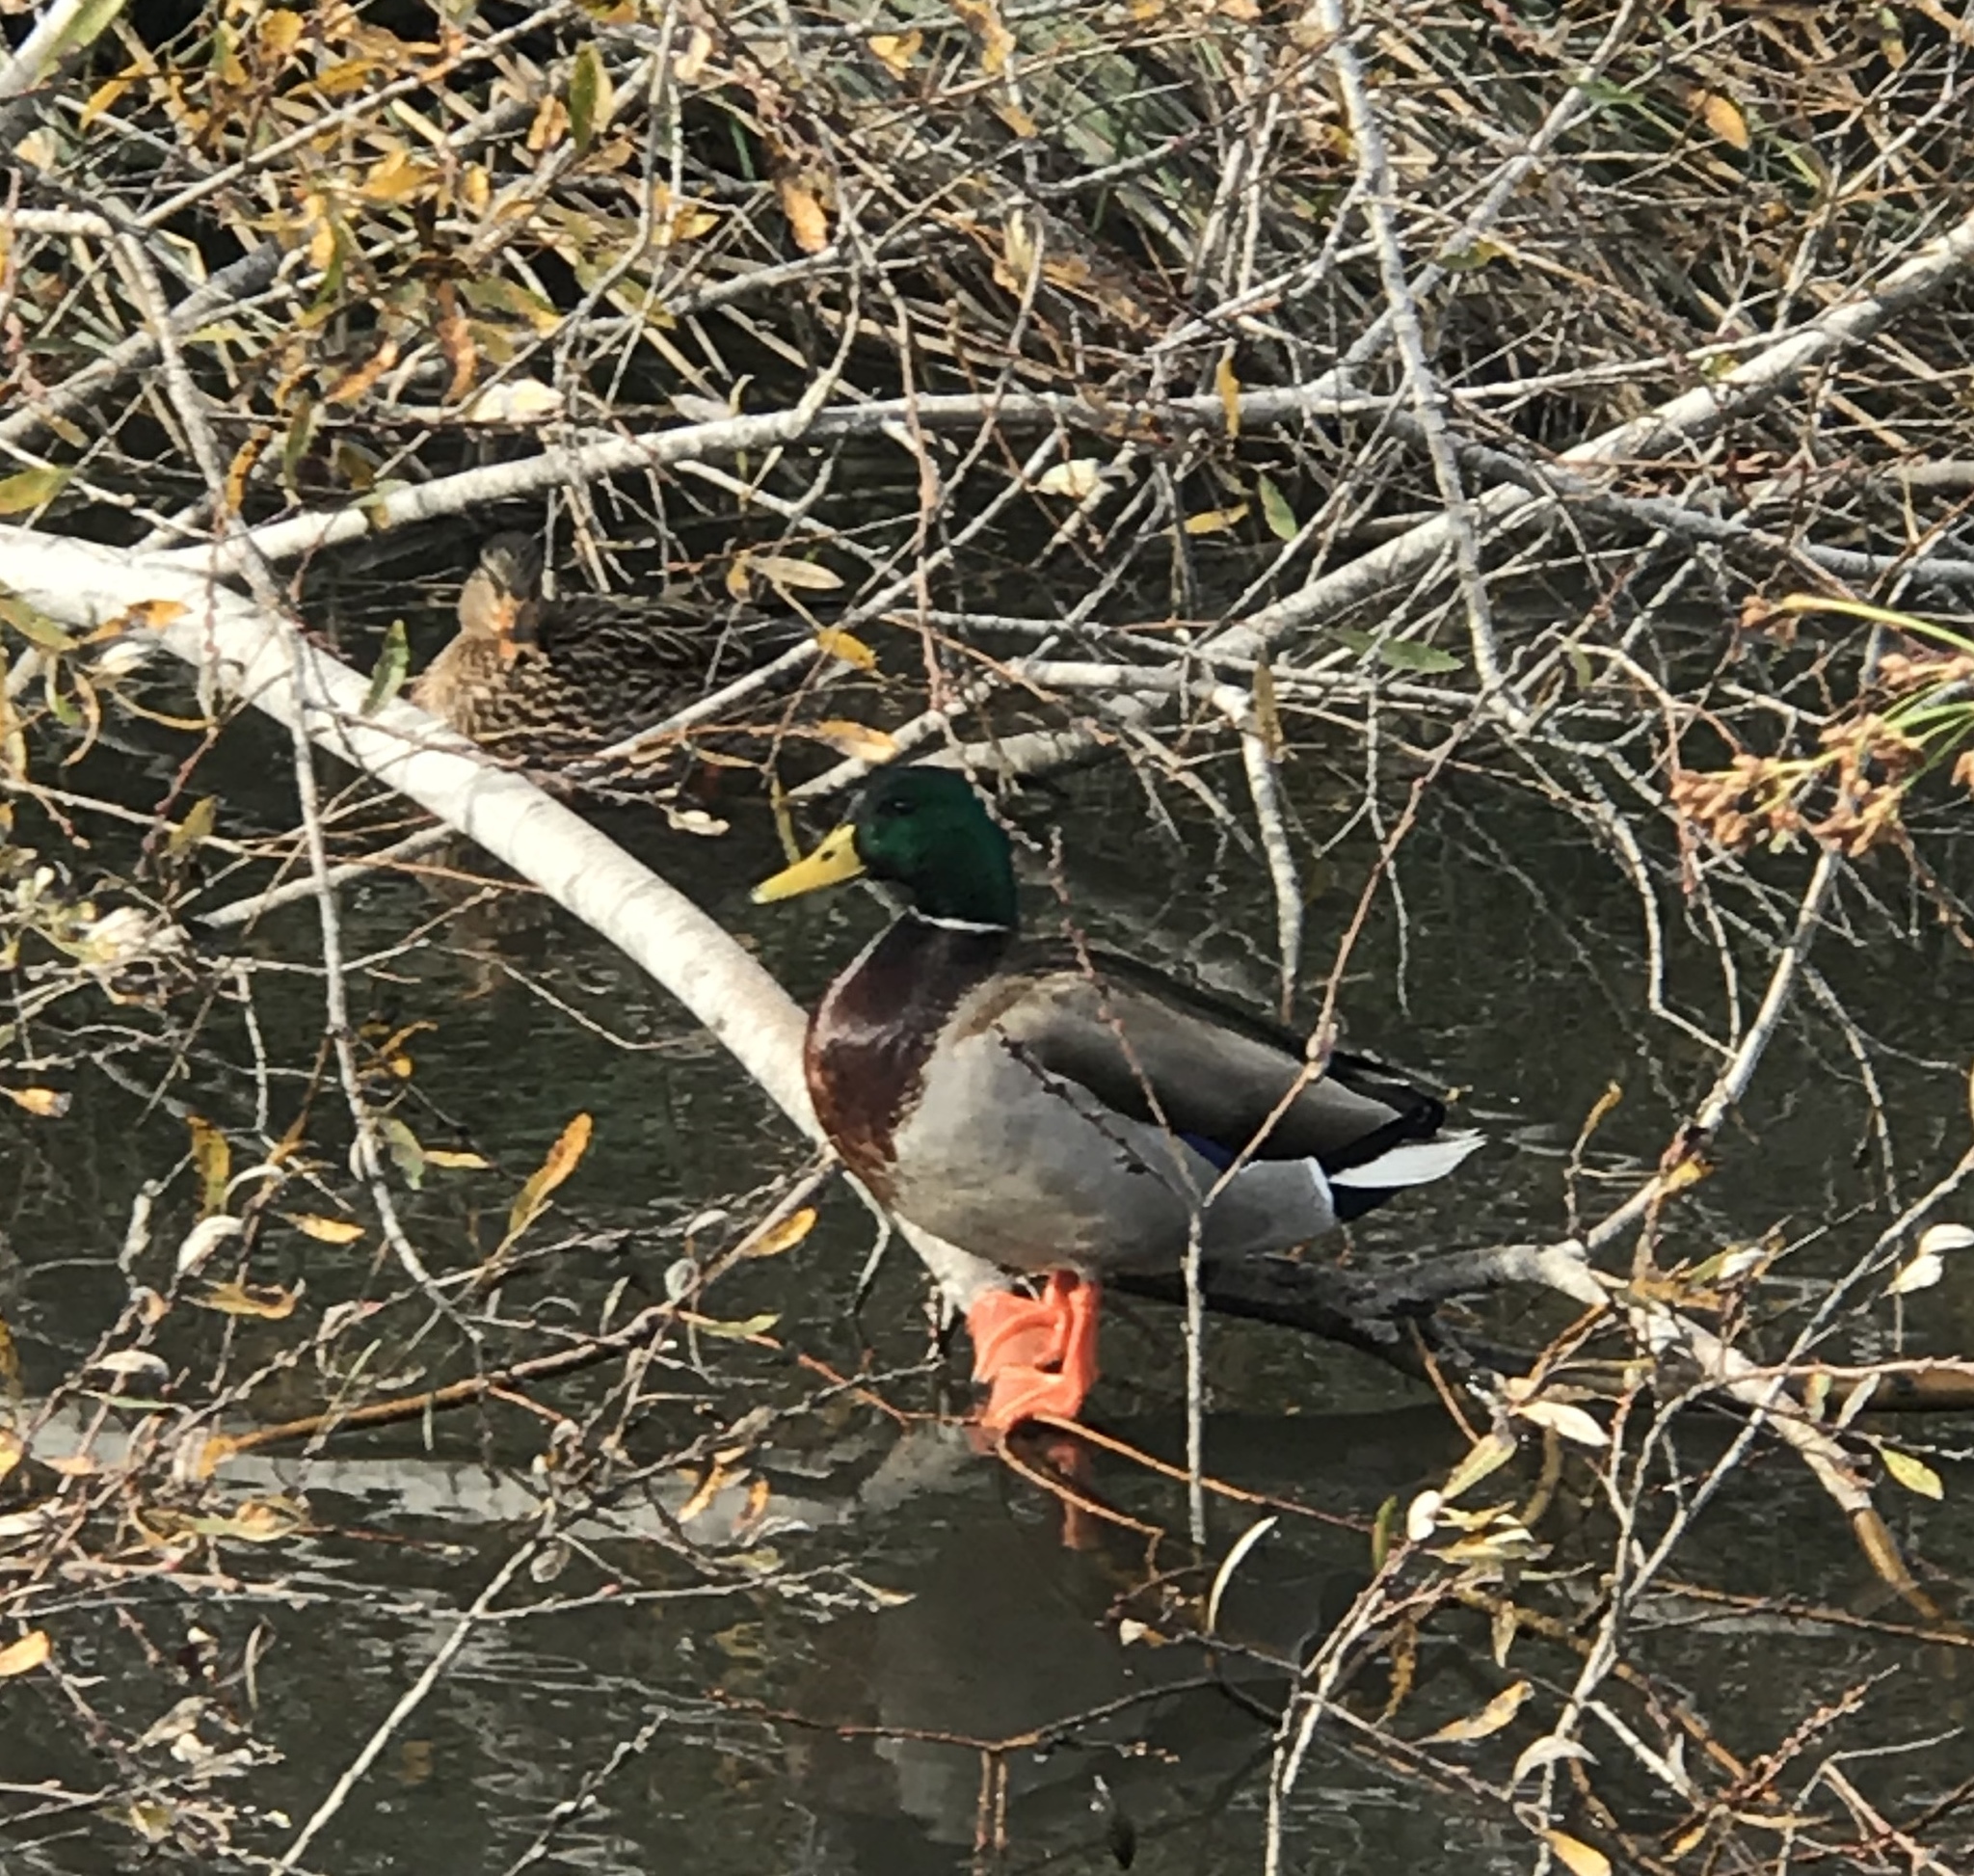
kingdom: Animalia
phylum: Chordata
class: Aves
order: Anseriformes
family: Anatidae
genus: Anas
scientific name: Anas platyrhynchos
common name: Mallard
